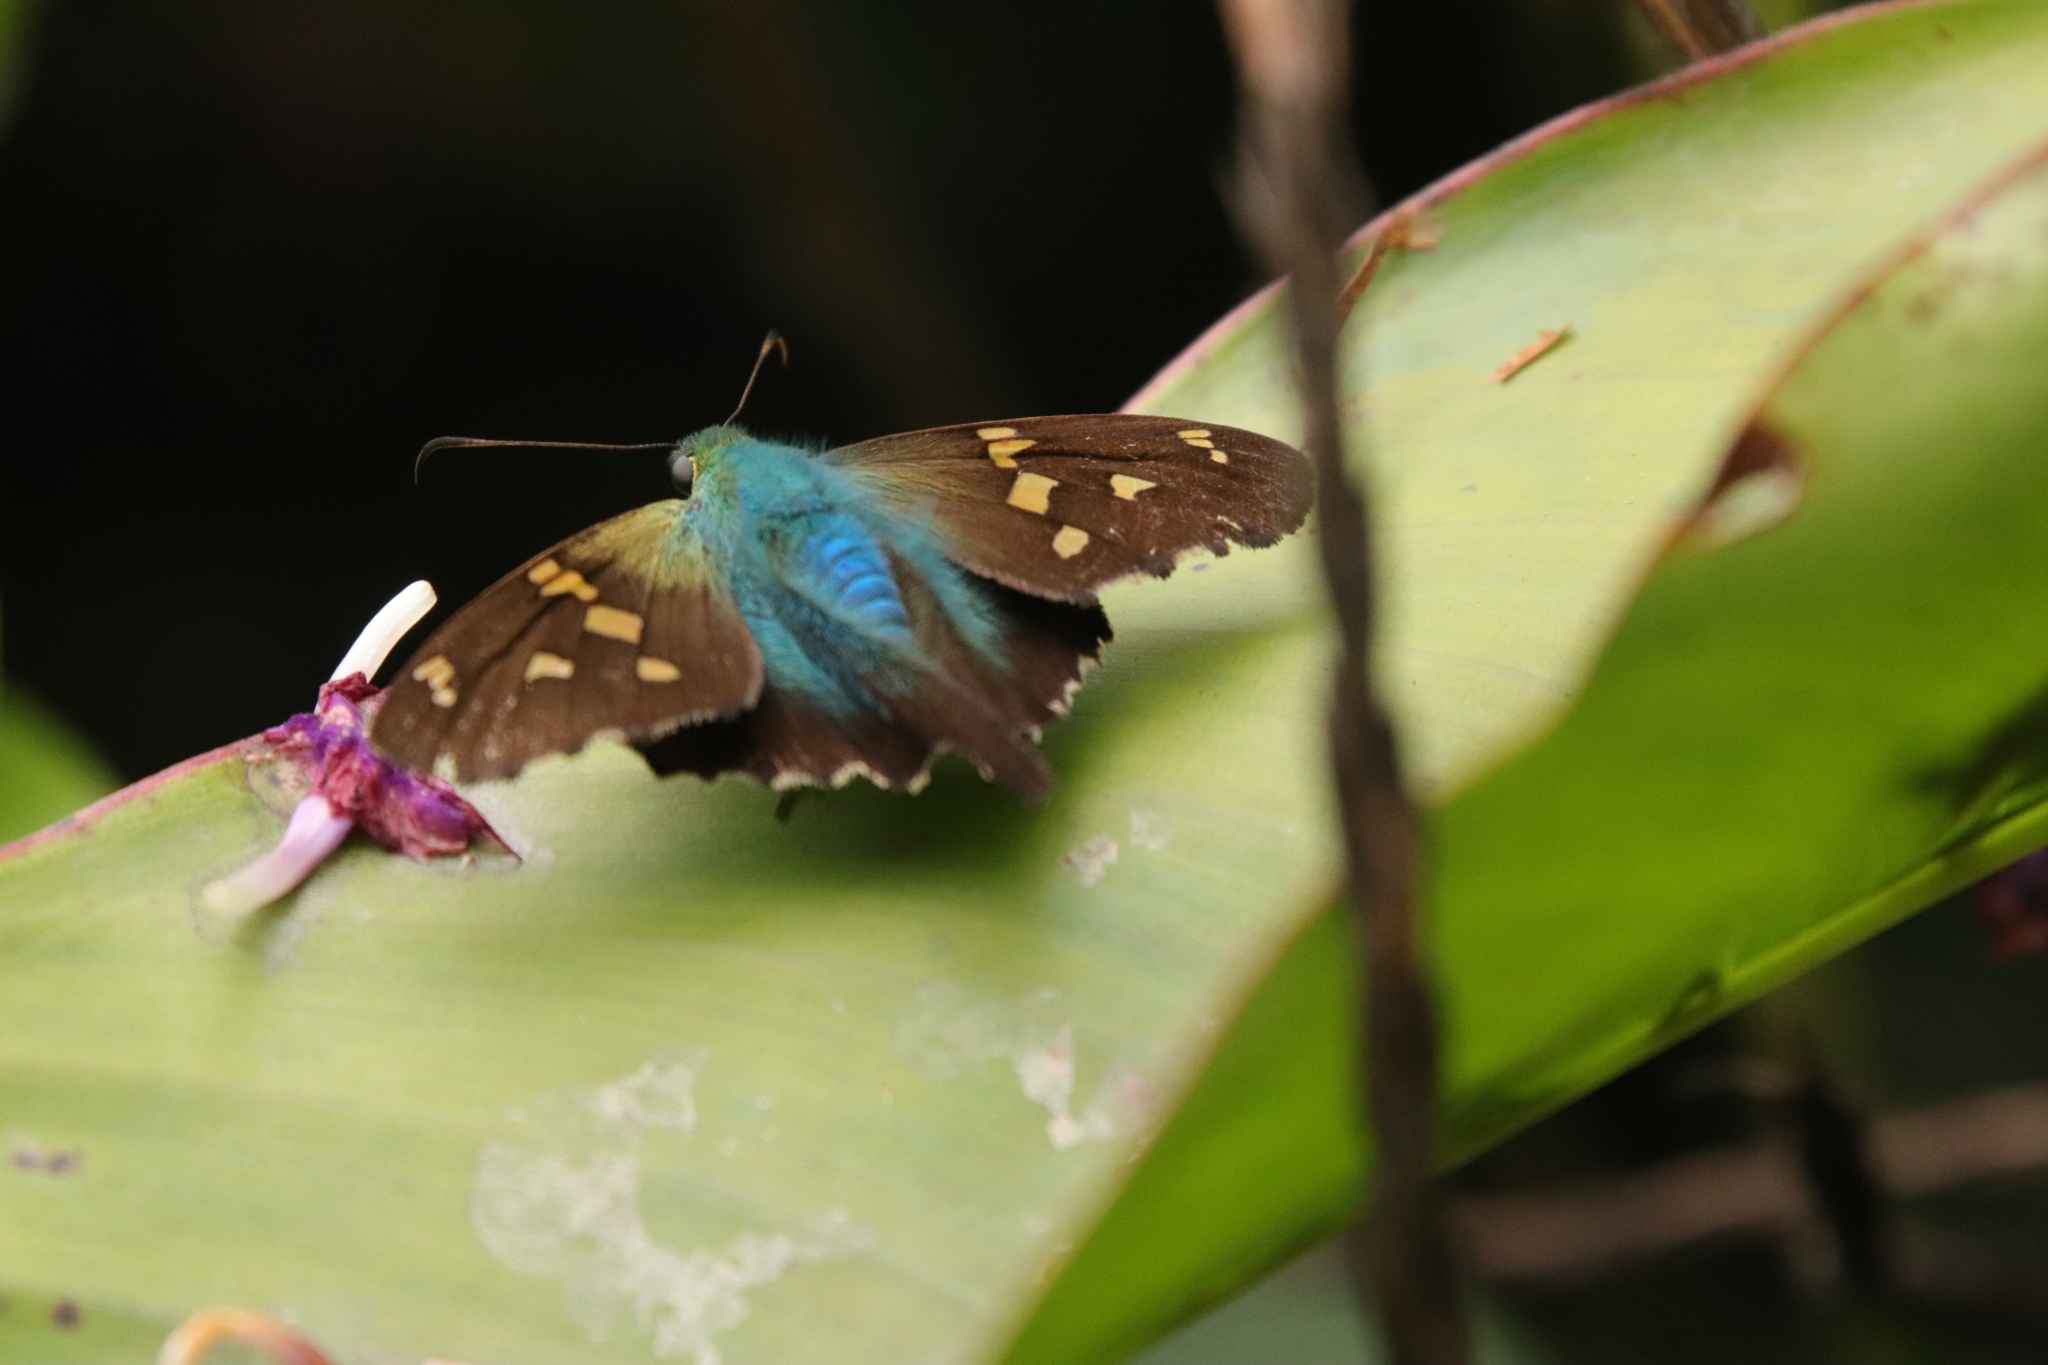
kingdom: Animalia
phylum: Arthropoda
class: Insecta
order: Lepidoptera
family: Hesperiidae
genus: Urbanus
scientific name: Urbanus proteus
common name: Long-tailed skipper
